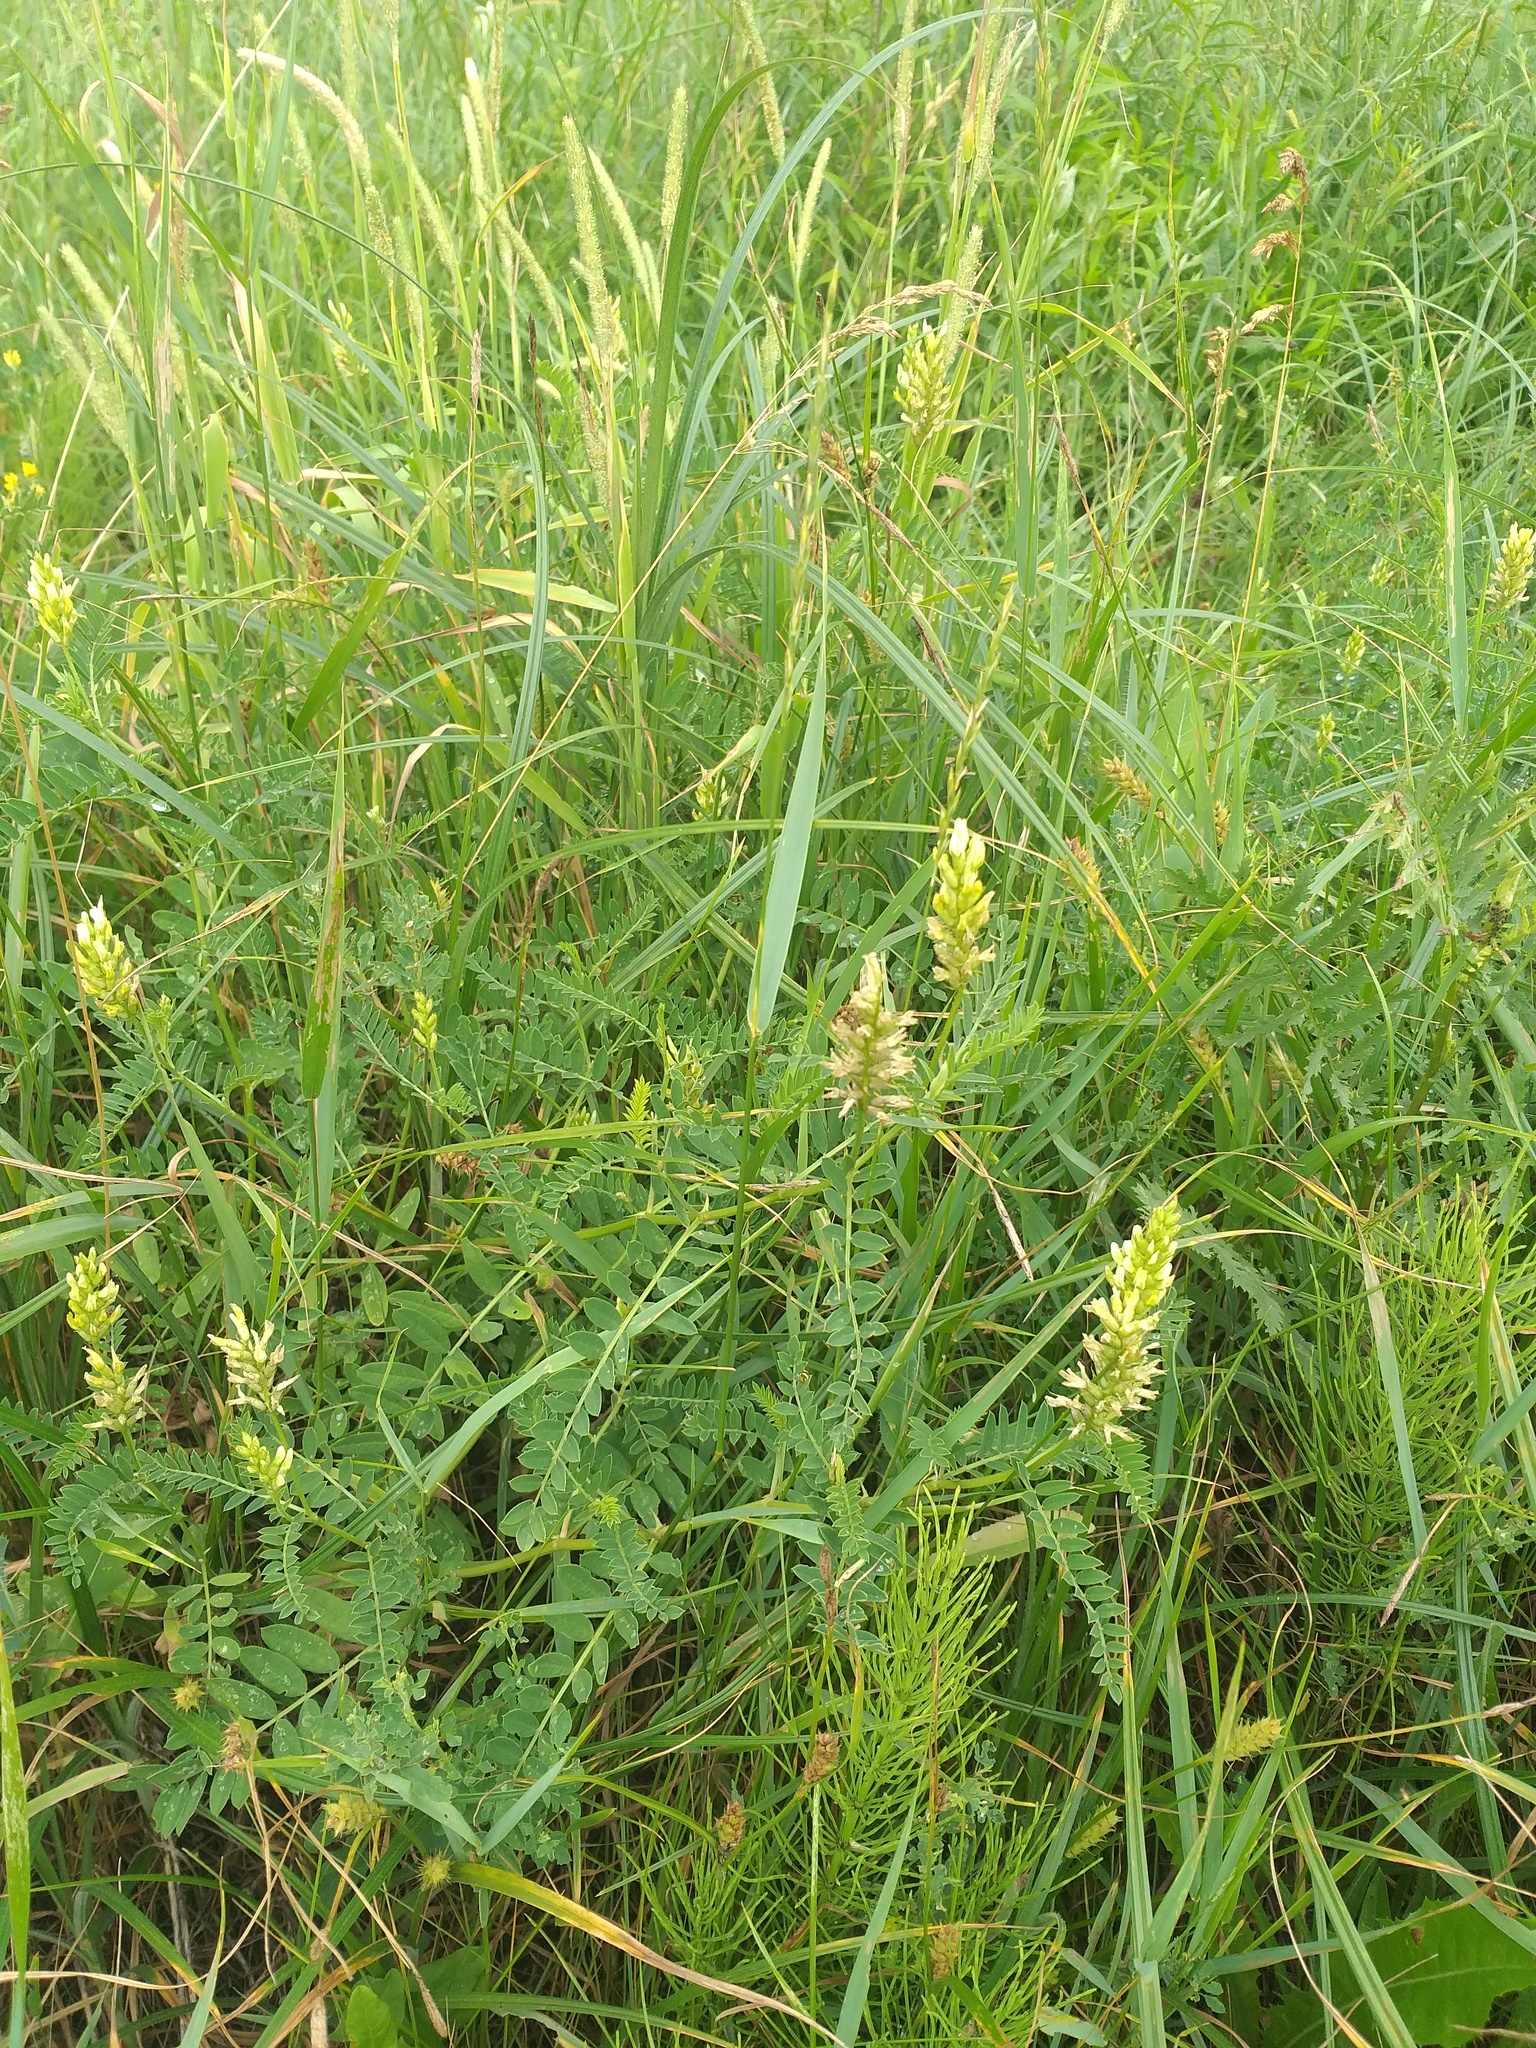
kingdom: Plantae
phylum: Tracheophyta
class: Magnoliopsida
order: Fabales
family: Fabaceae
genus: Astragalus
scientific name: Astragalus cicer
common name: Chick-pea milk-vetch
